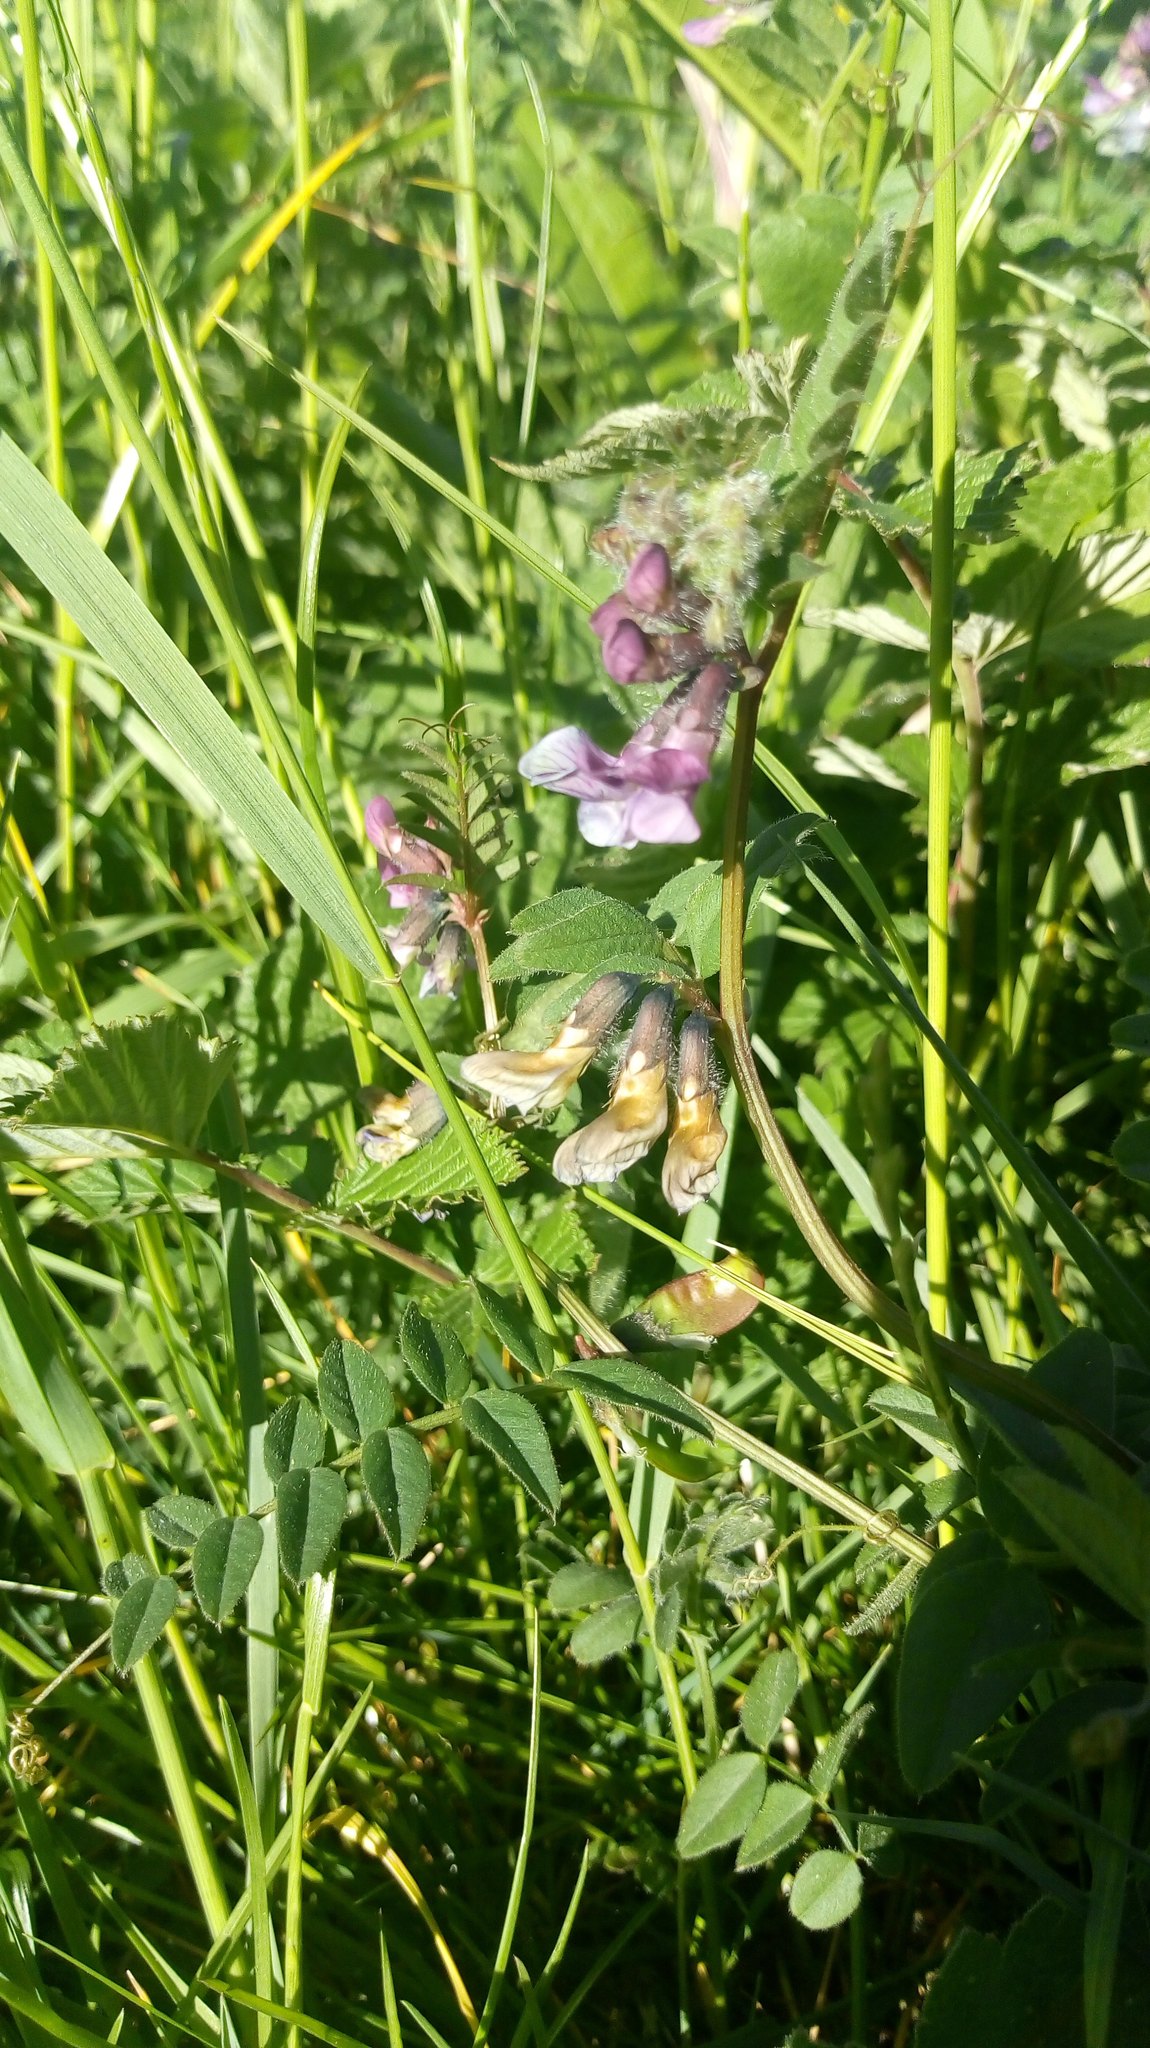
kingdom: Plantae
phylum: Tracheophyta
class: Magnoliopsida
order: Fabales
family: Fabaceae
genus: Vicia
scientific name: Vicia sepium
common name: Bush vetch
